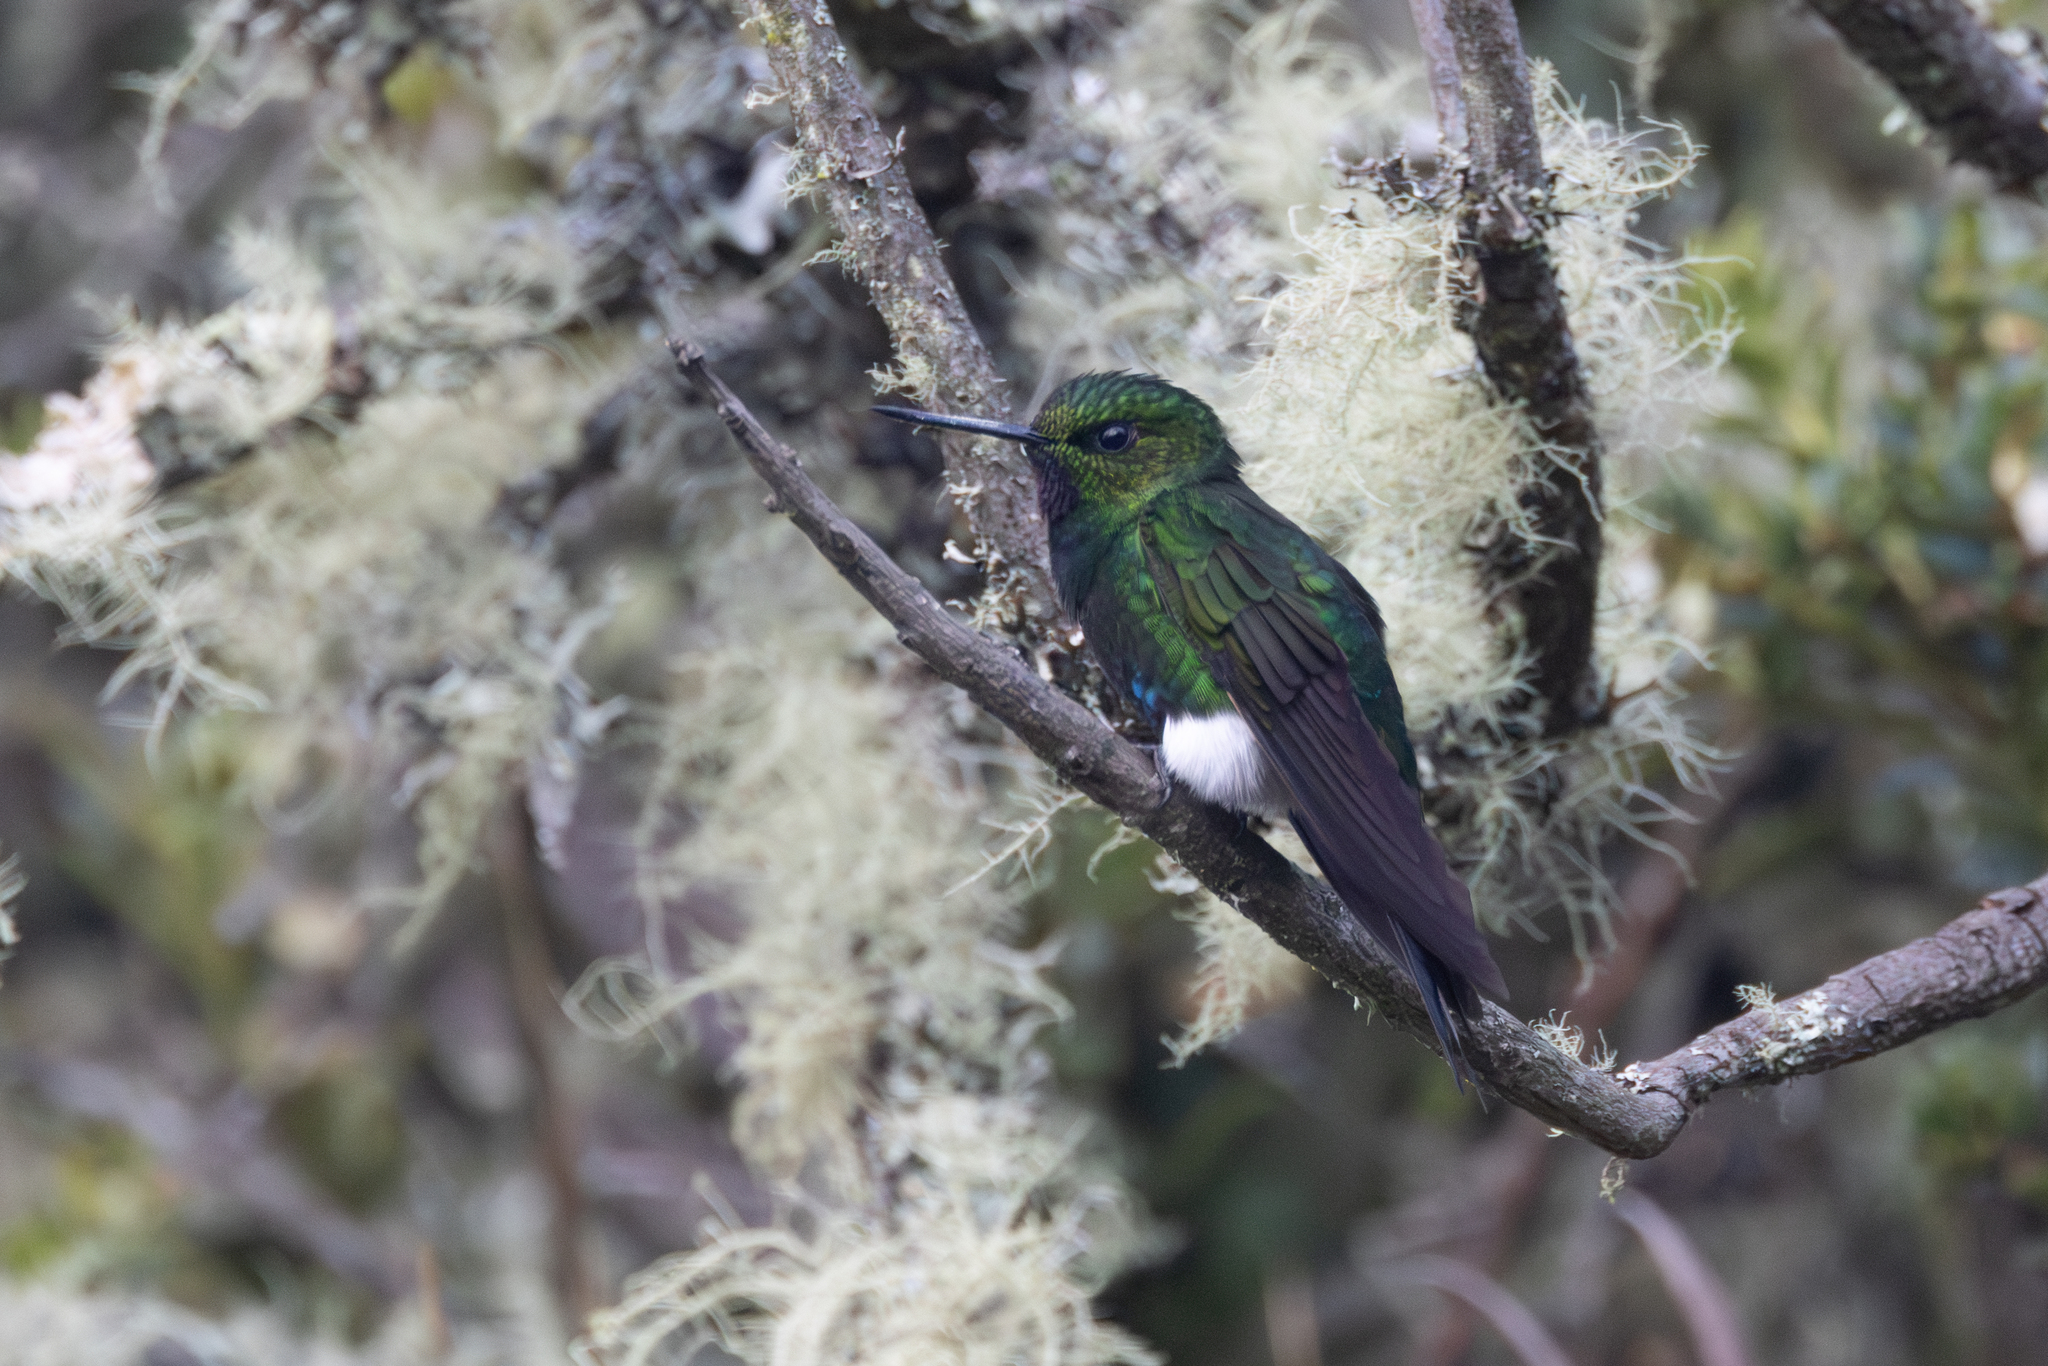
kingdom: Animalia
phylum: Chordata
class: Aves
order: Apodiformes
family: Trochilidae
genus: Eriocnemis
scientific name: Eriocnemis vestita
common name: Glowing puffleg
